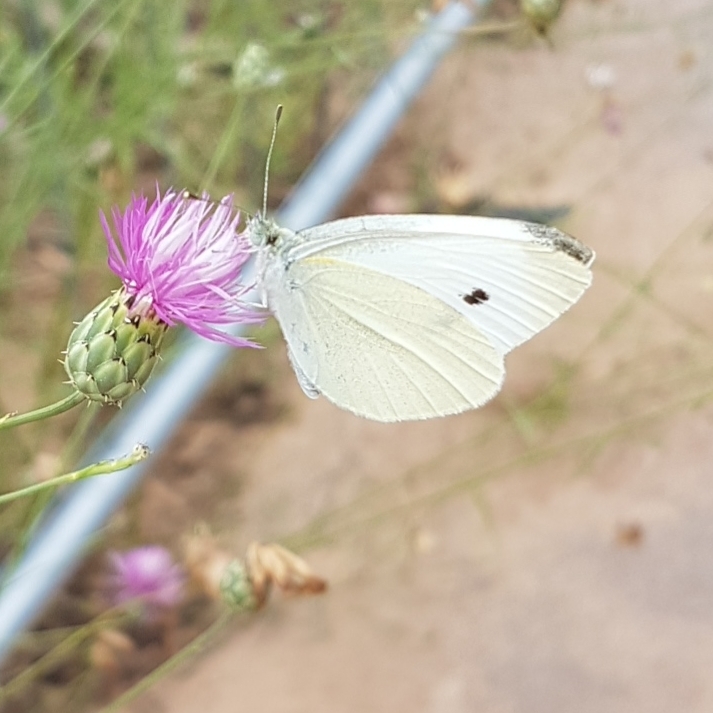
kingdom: Animalia
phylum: Arthropoda
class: Insecta
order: Lepidoptera
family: Pieridae
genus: Pieris
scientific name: Pieris rapae
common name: Small white
